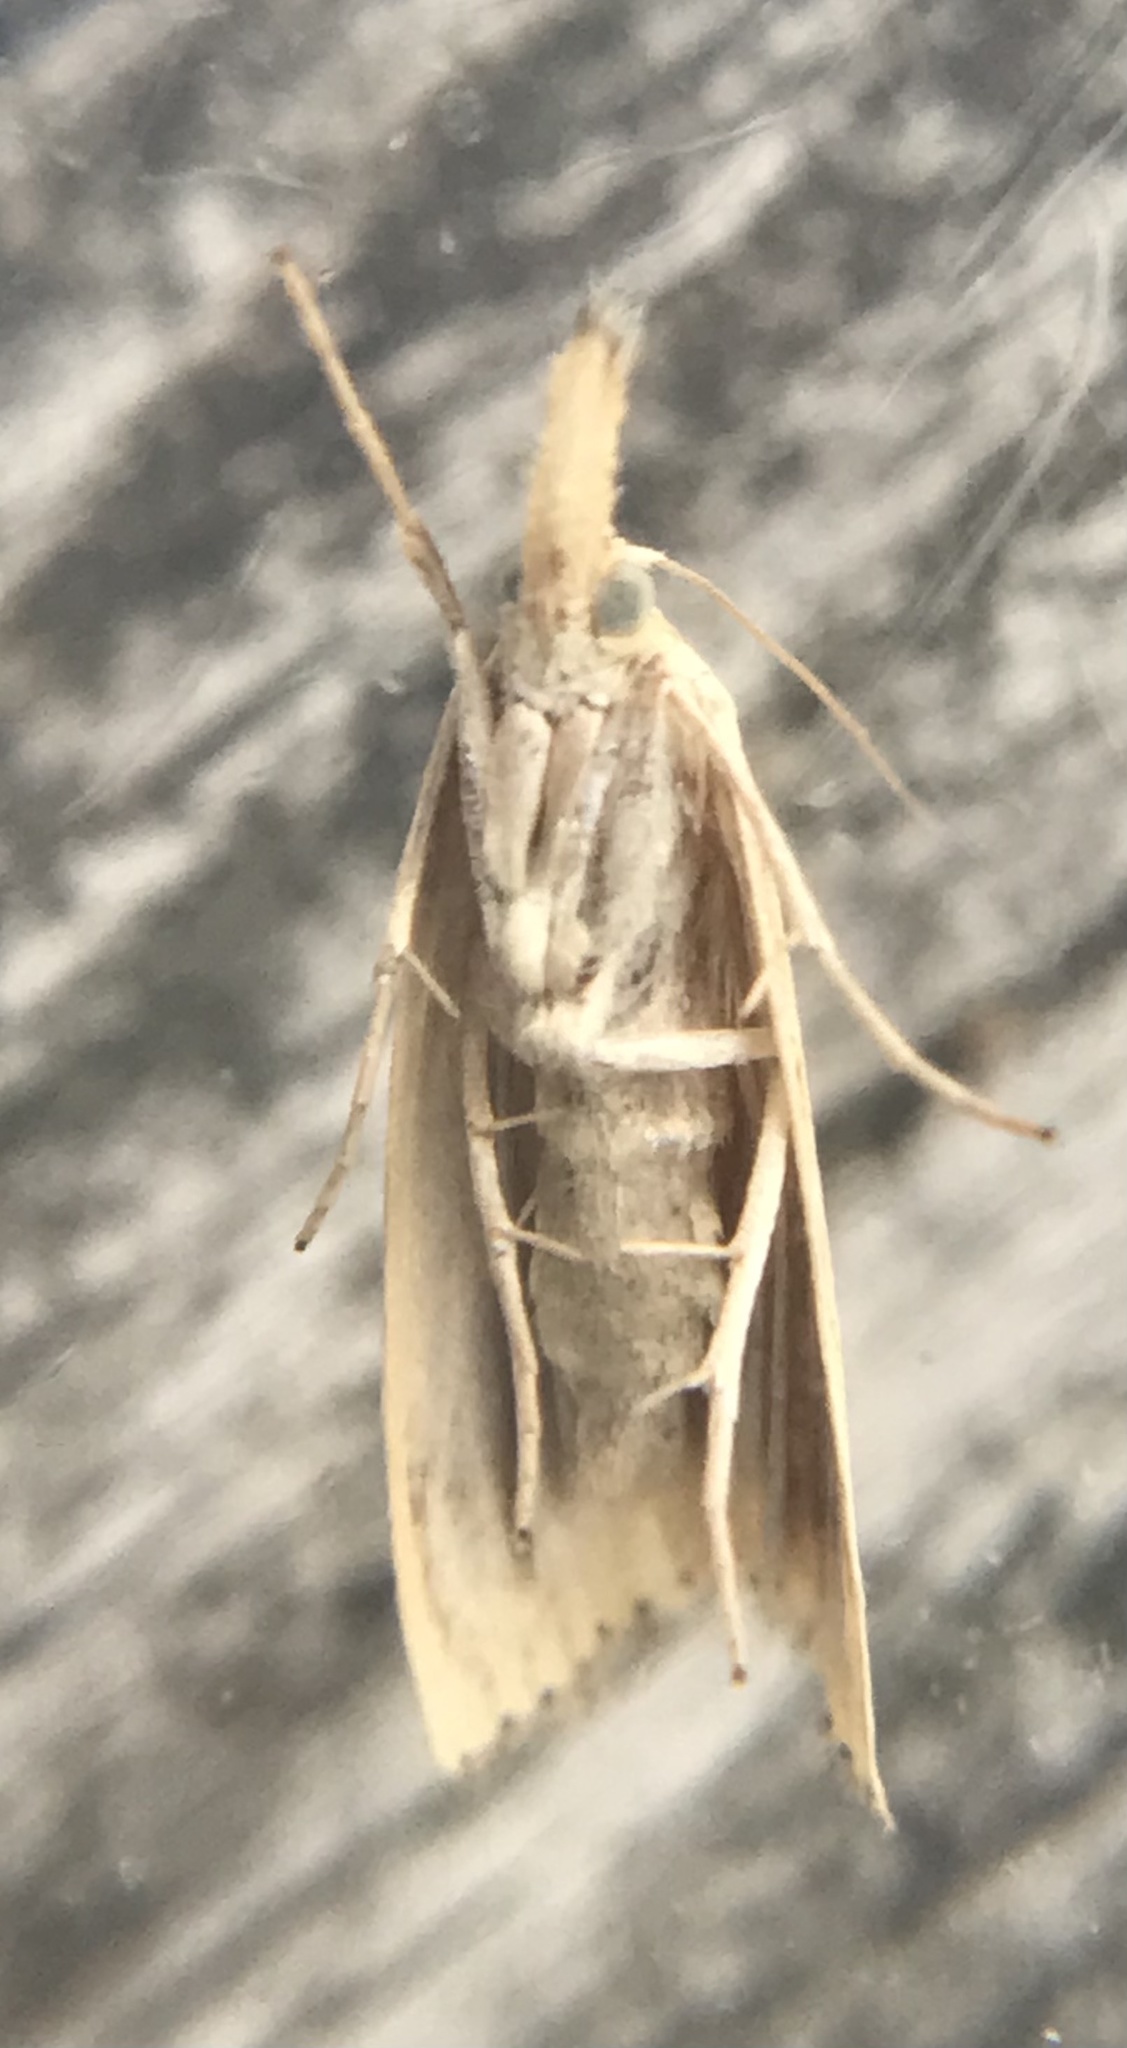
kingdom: Animalia
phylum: Arthropoda
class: Insecta
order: Lepidoptera
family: Crambidae
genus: Agriphila
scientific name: Agriphila ruricolellus
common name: Lesser vagabond sod webworm
